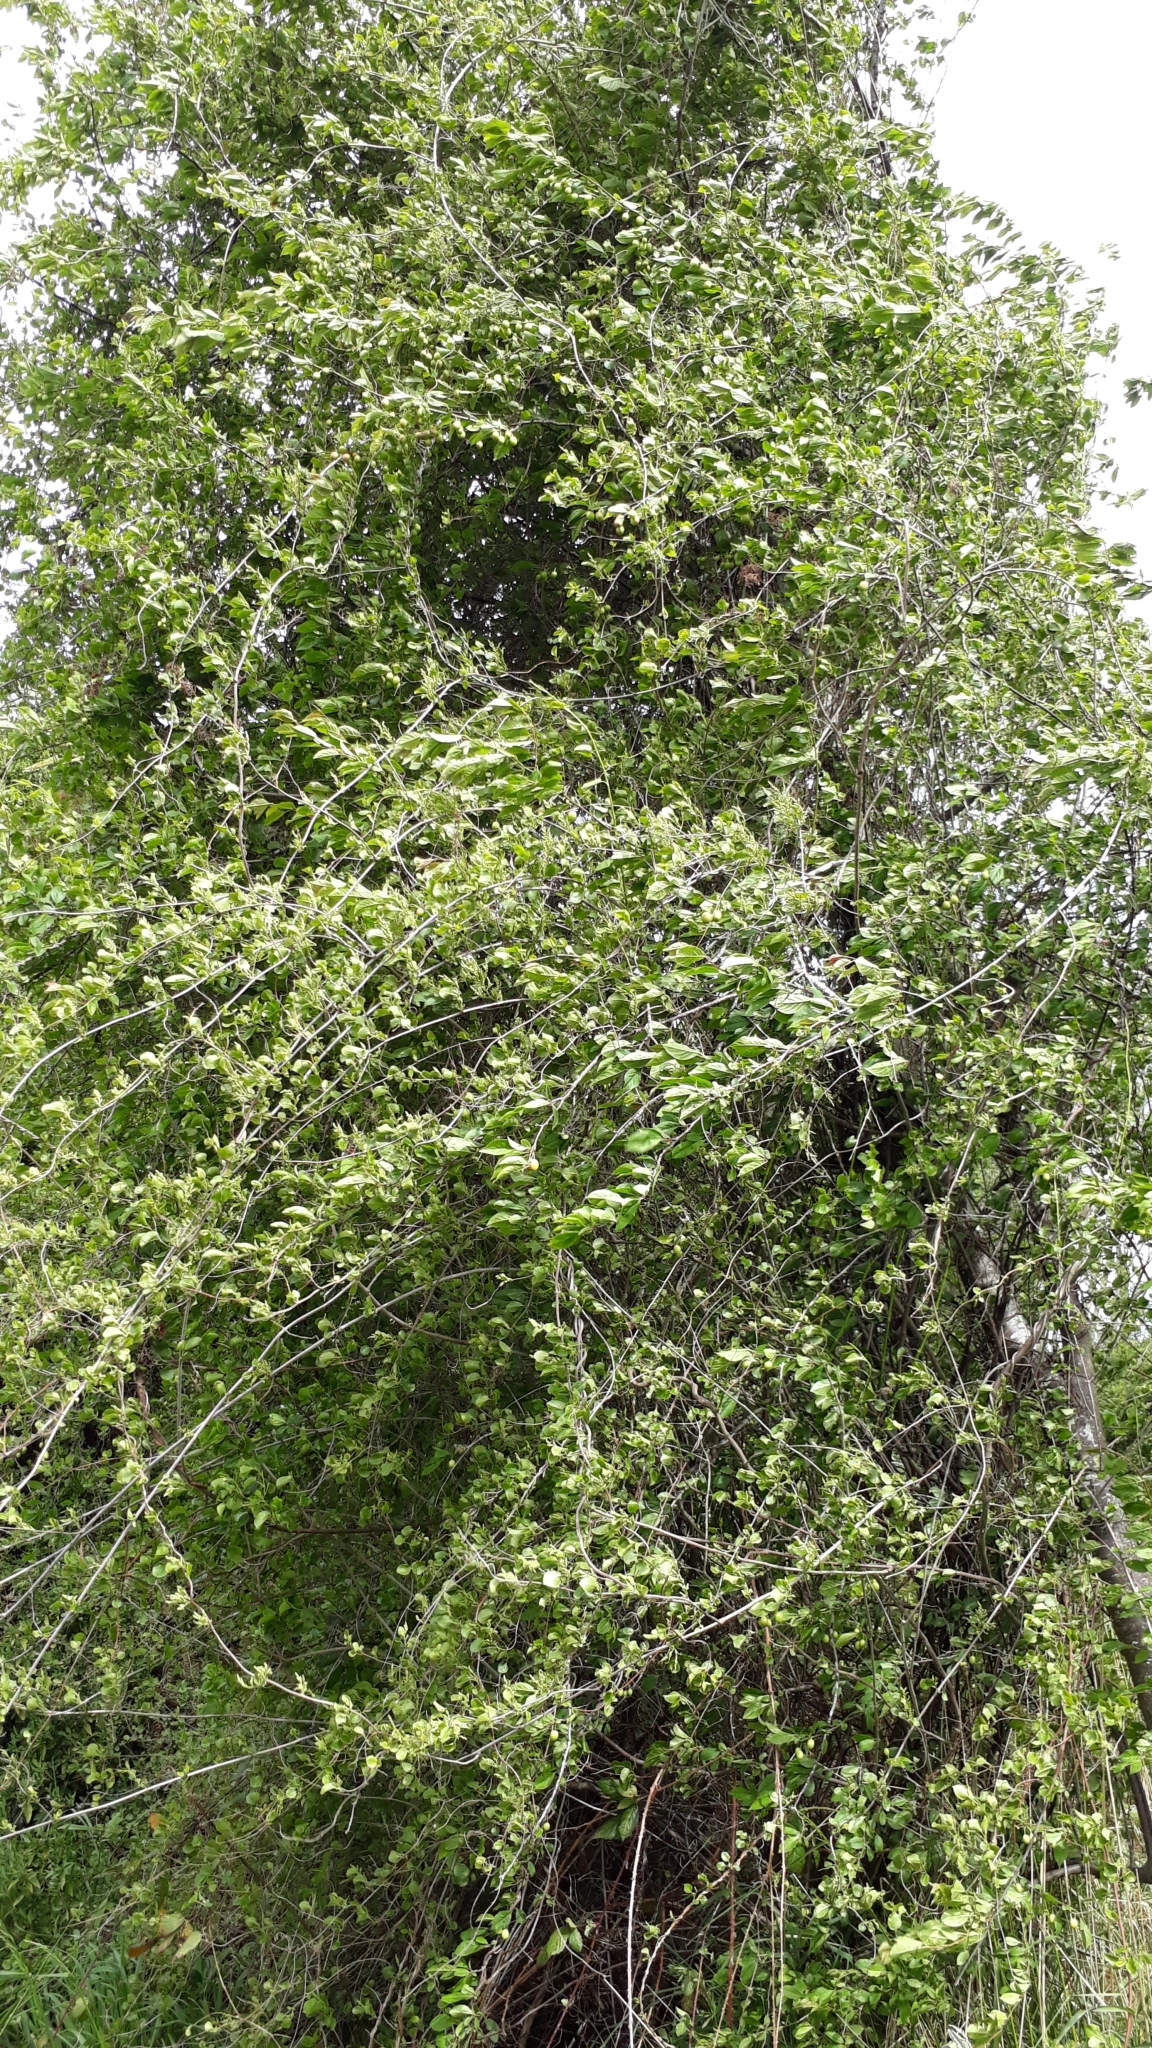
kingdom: Plantae
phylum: Tracheophyta
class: Magnoliopsida
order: Caryophyllales
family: Polygonaceae
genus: Muehlenbeckia
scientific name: Muehlenbeckia australis
